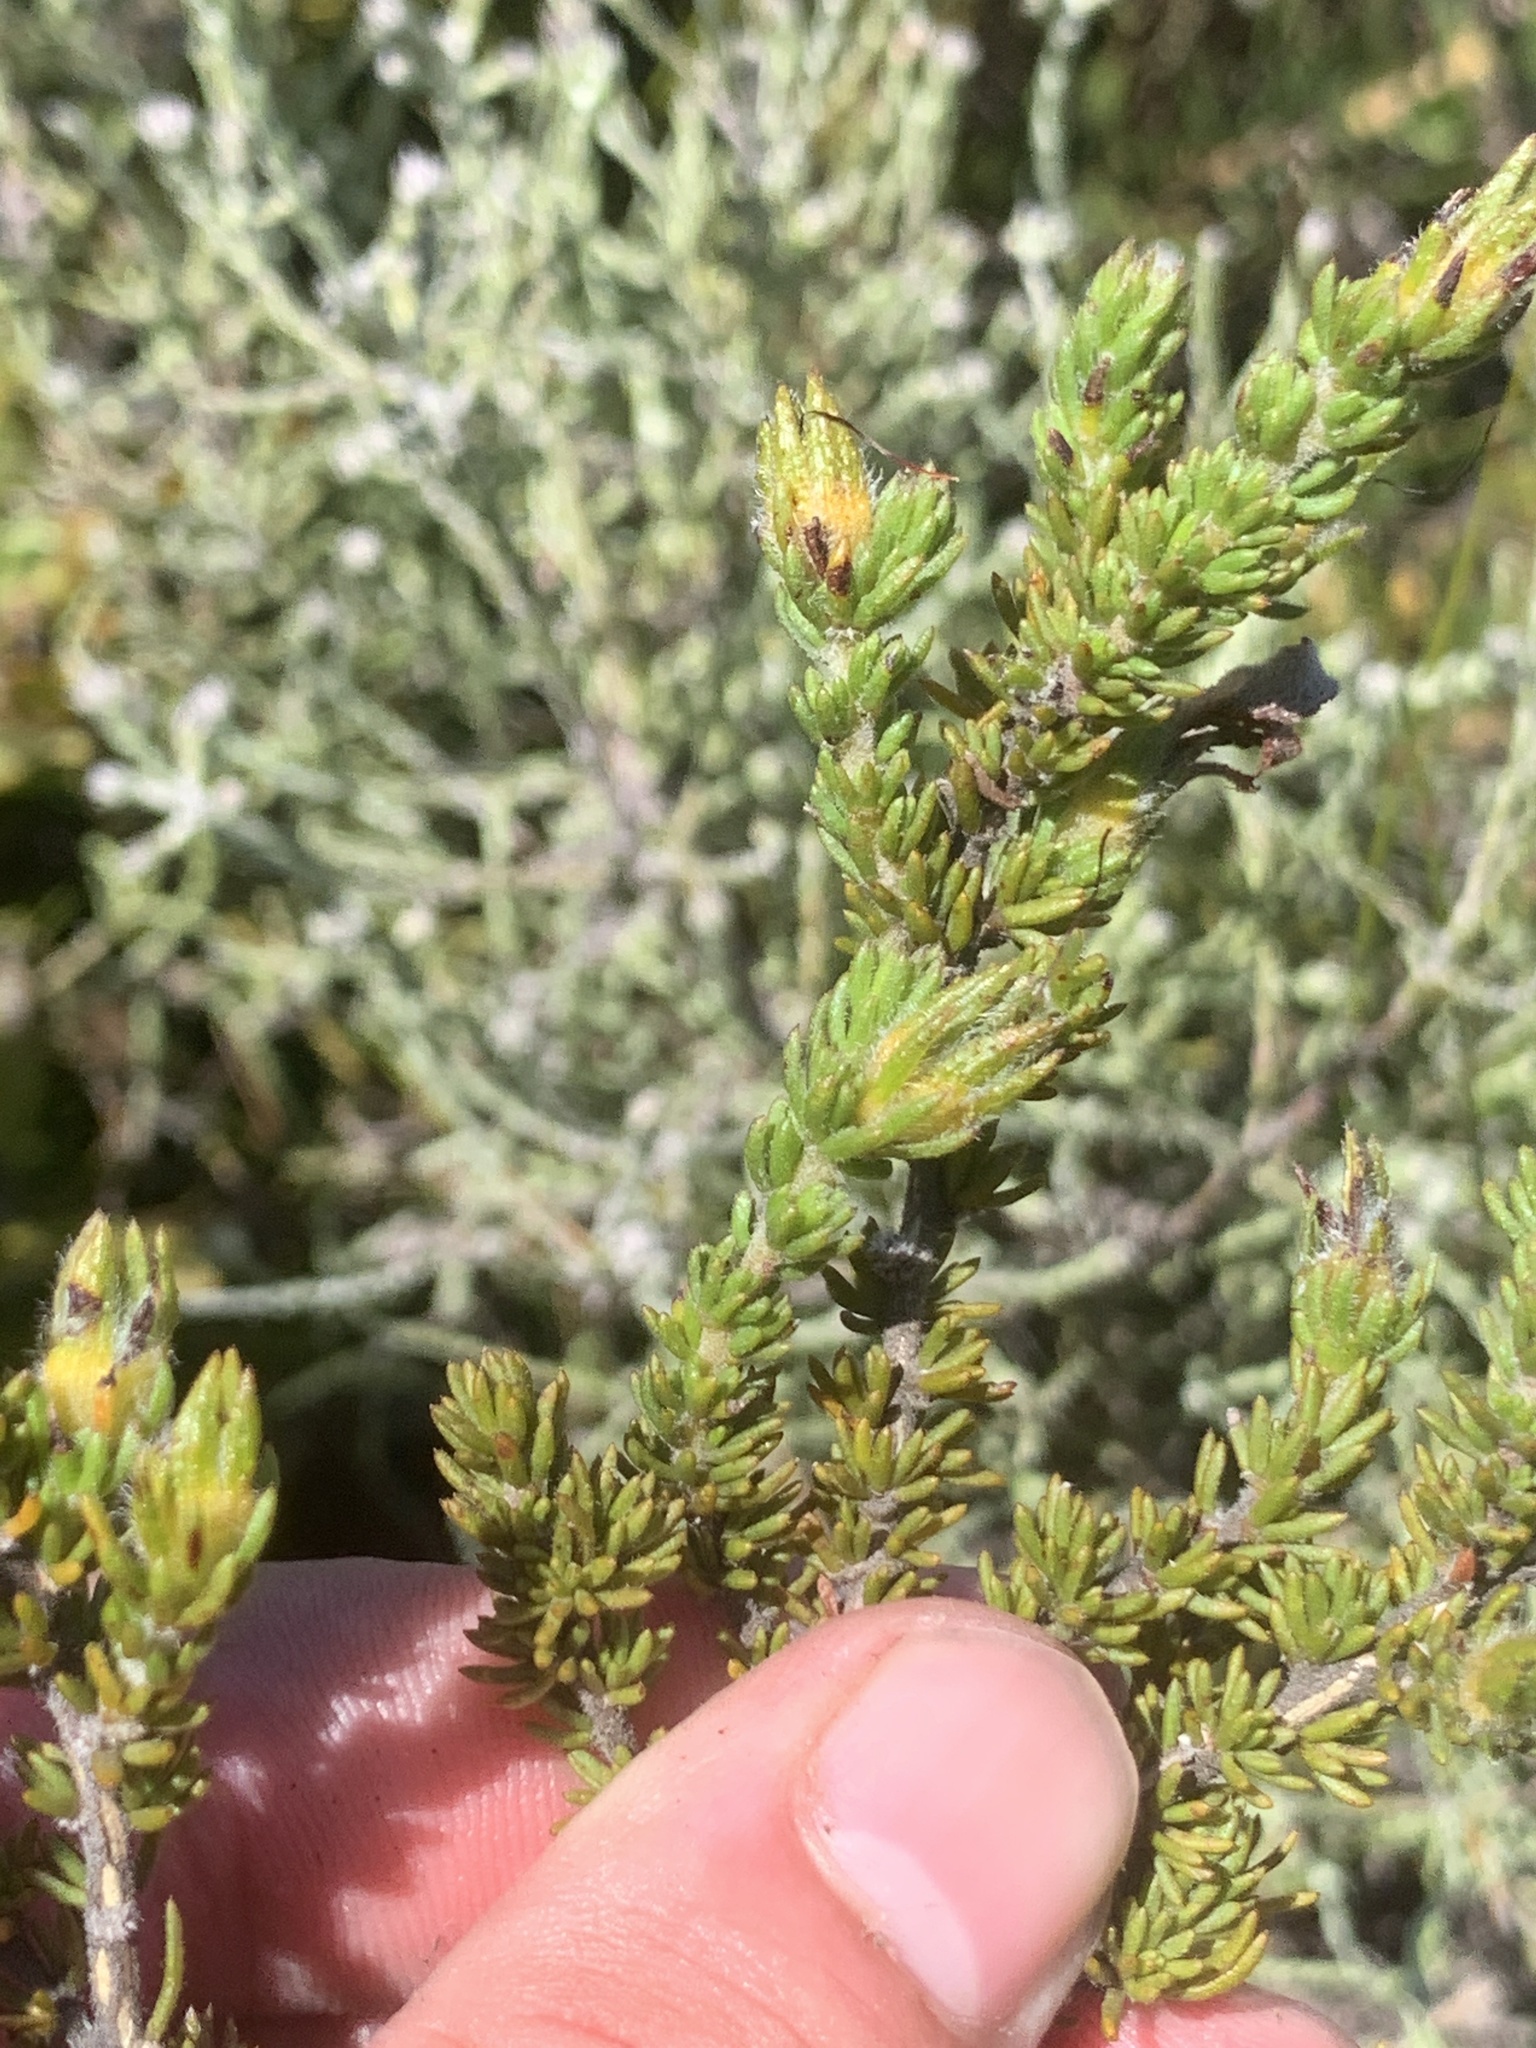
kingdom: Plantae
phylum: Tracheophyta
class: Magnoliopsida
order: Fabales
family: Fabaceae
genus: Aspalathus
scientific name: Aspalathus linguiloba
